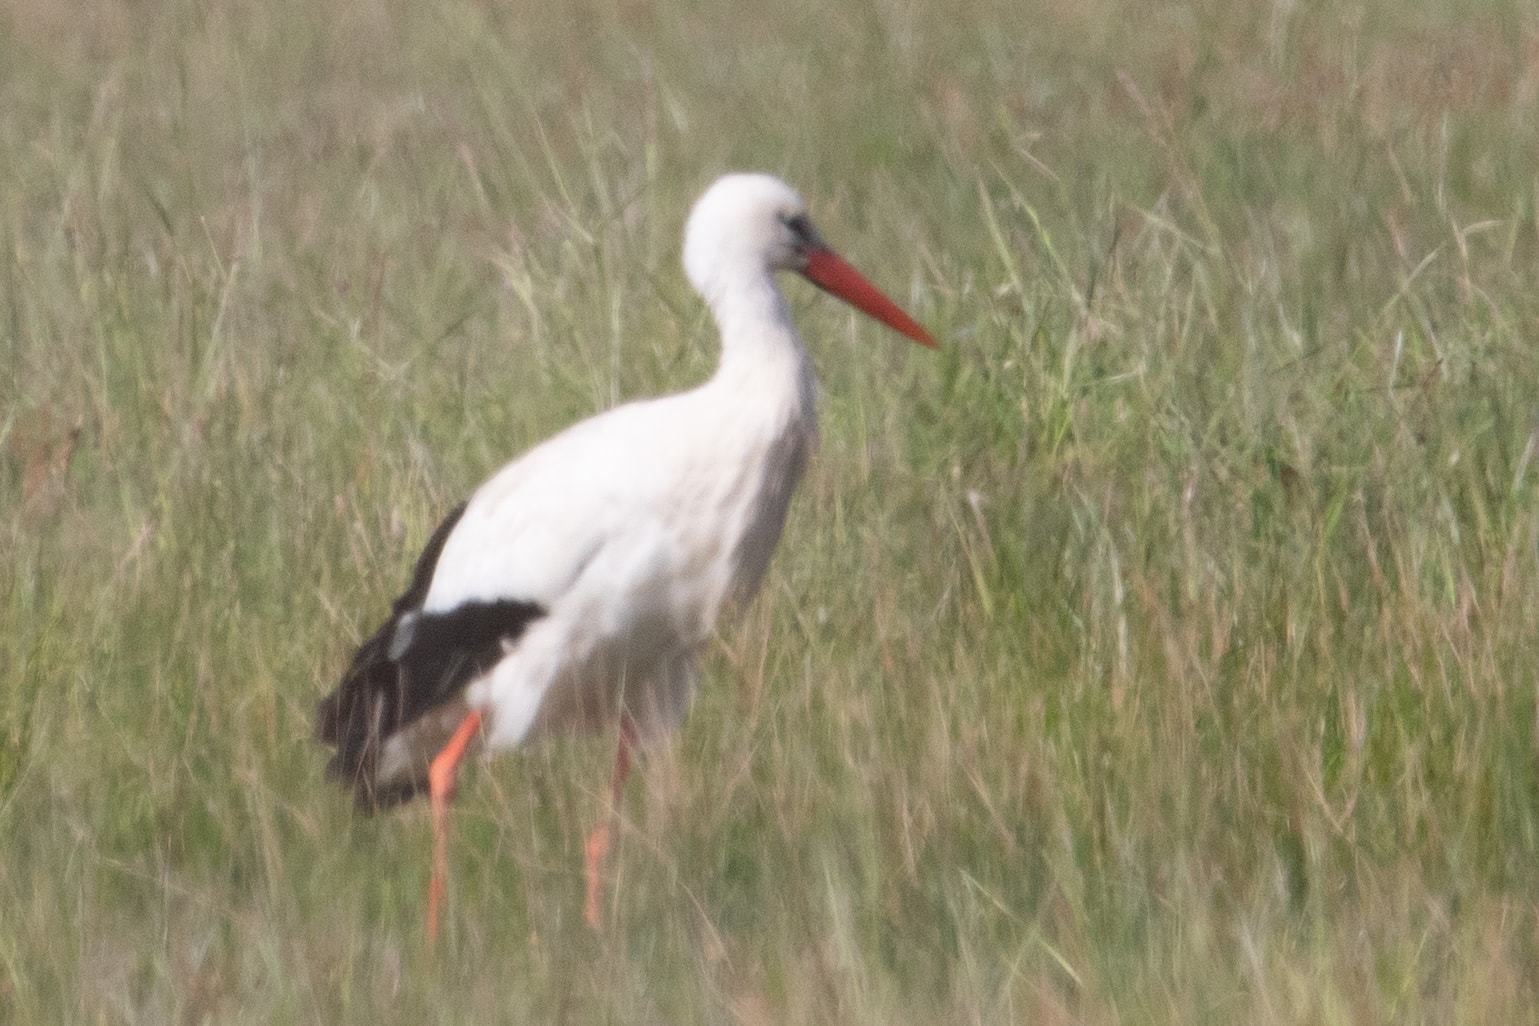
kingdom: Animalia
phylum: Chordata
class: Aves
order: Ciconiiformes
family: Ciconiidae
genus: Ciconia
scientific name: Ciconia ciconia
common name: White stork
